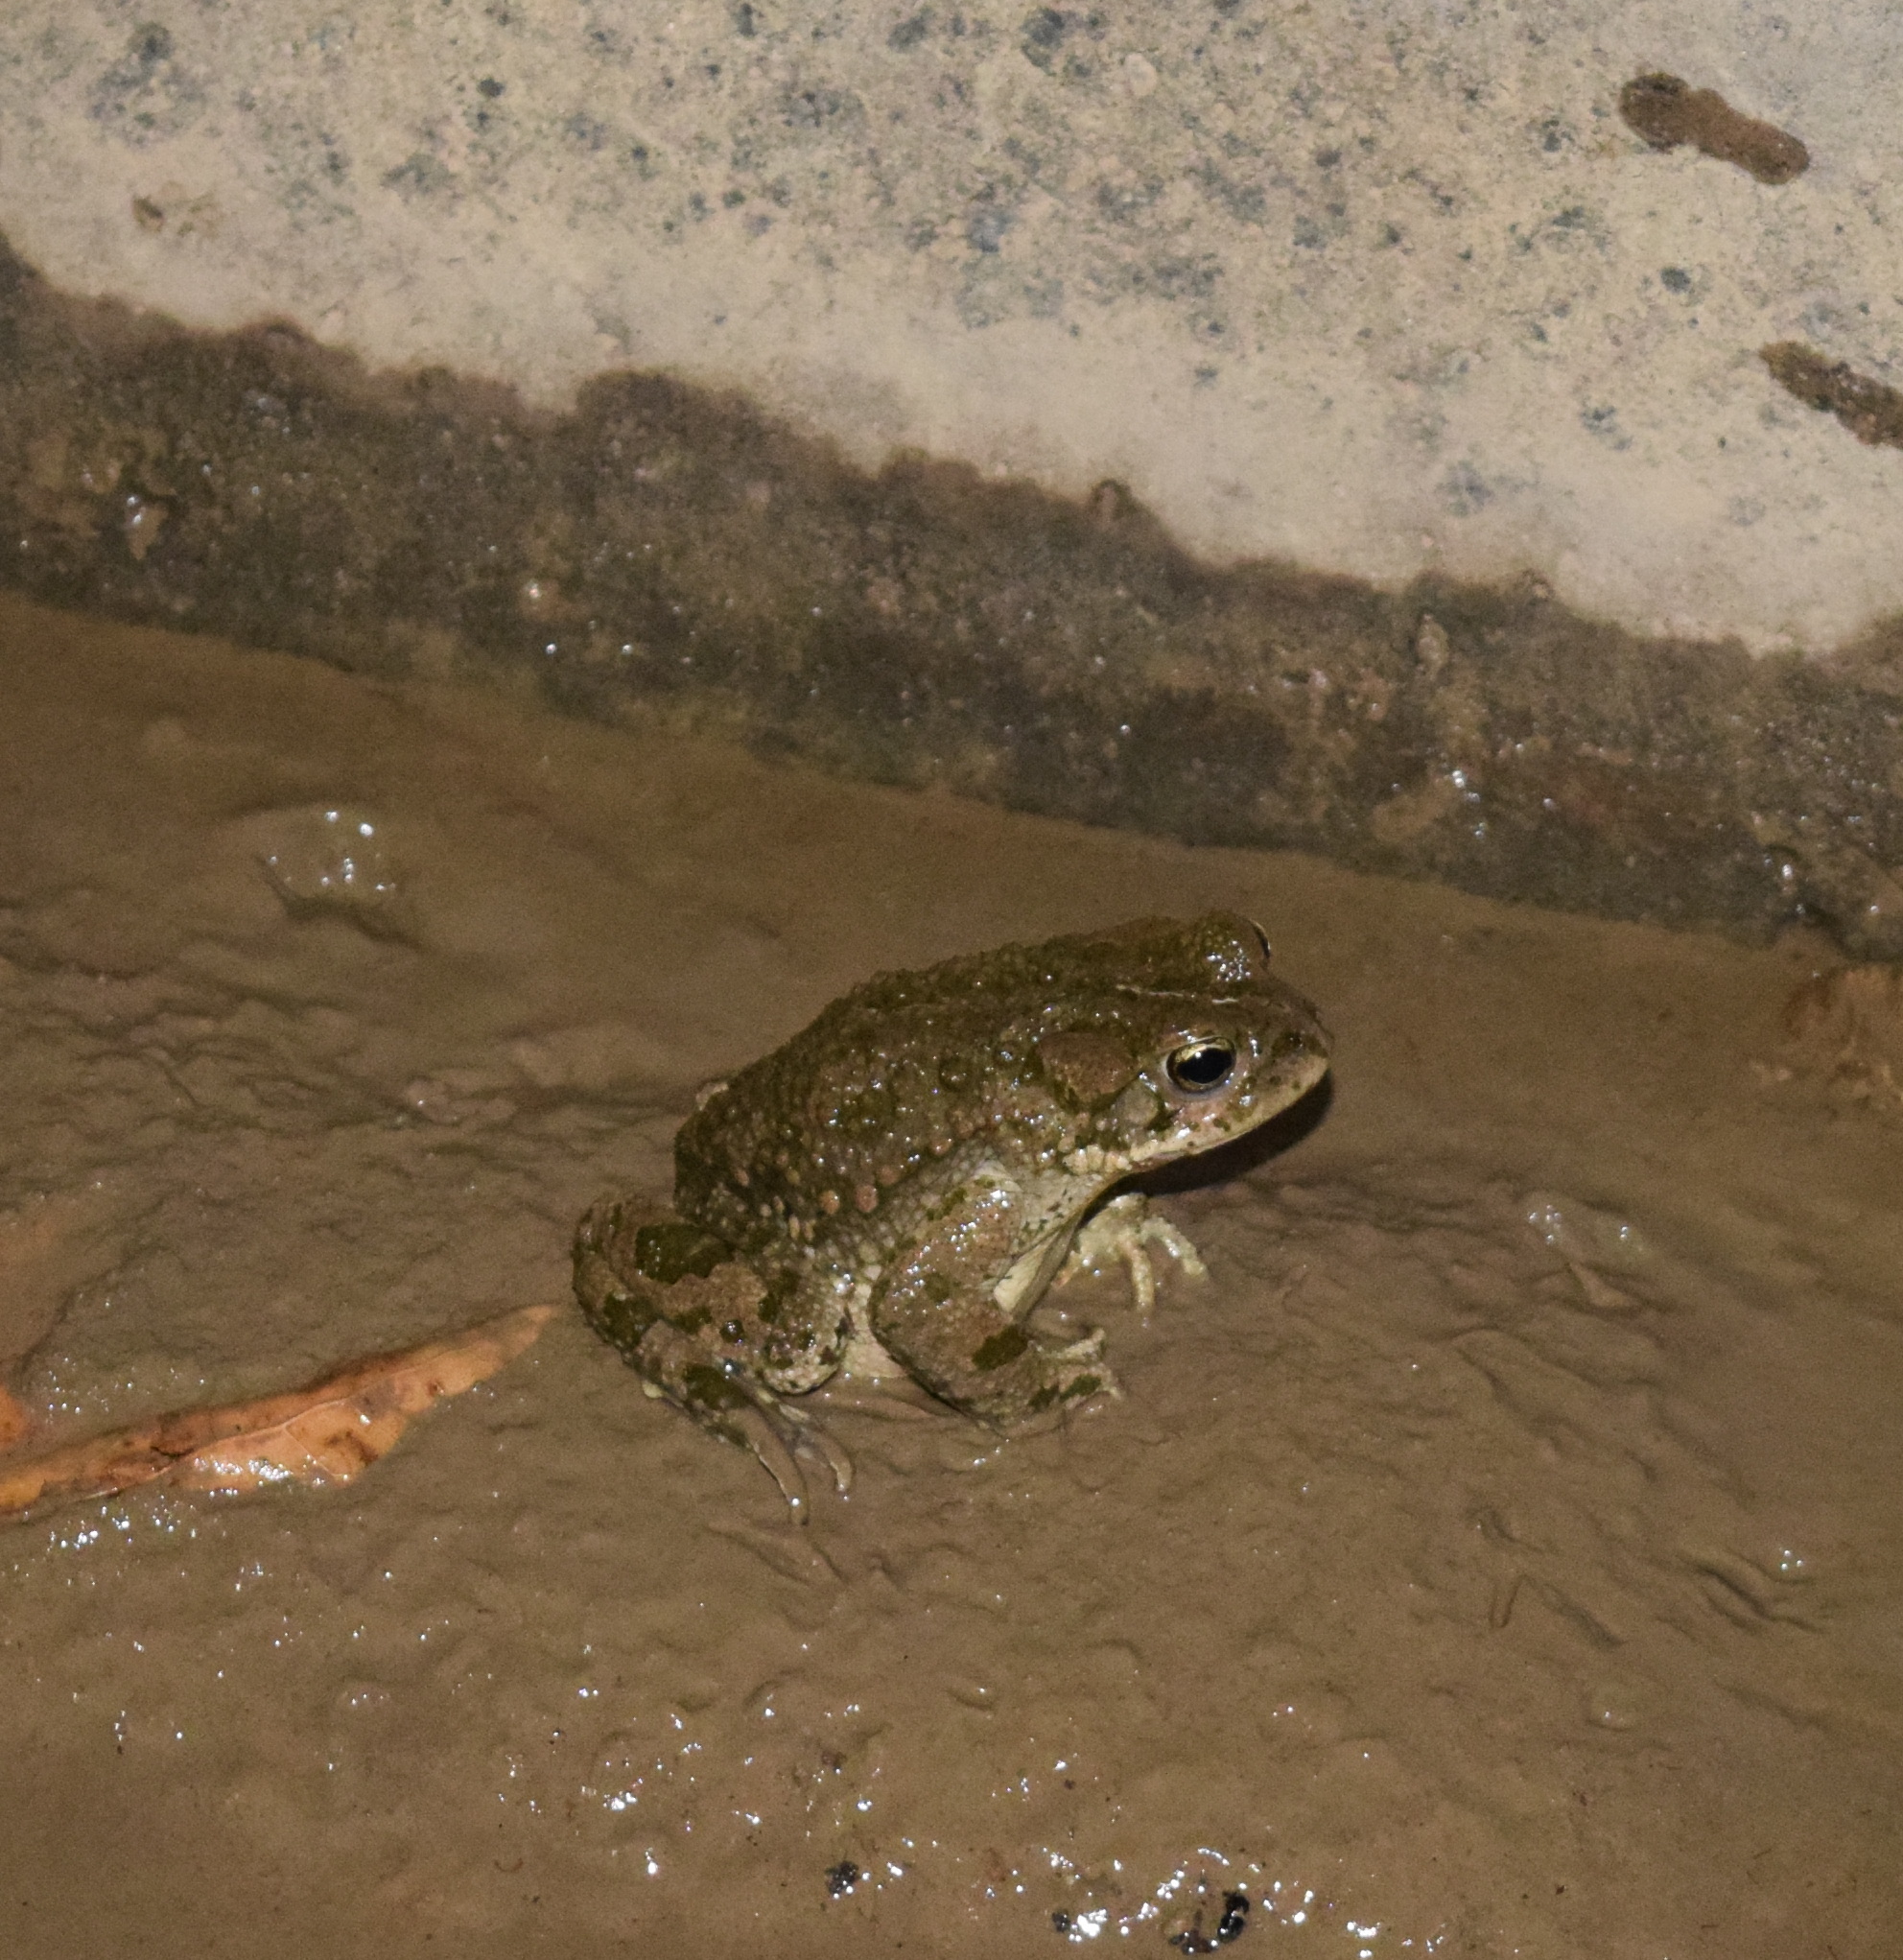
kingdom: Animalia
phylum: Chordata
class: Amphibia
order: Anura
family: Bufonidae
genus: Bufotes
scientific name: Bufotes turanensis
